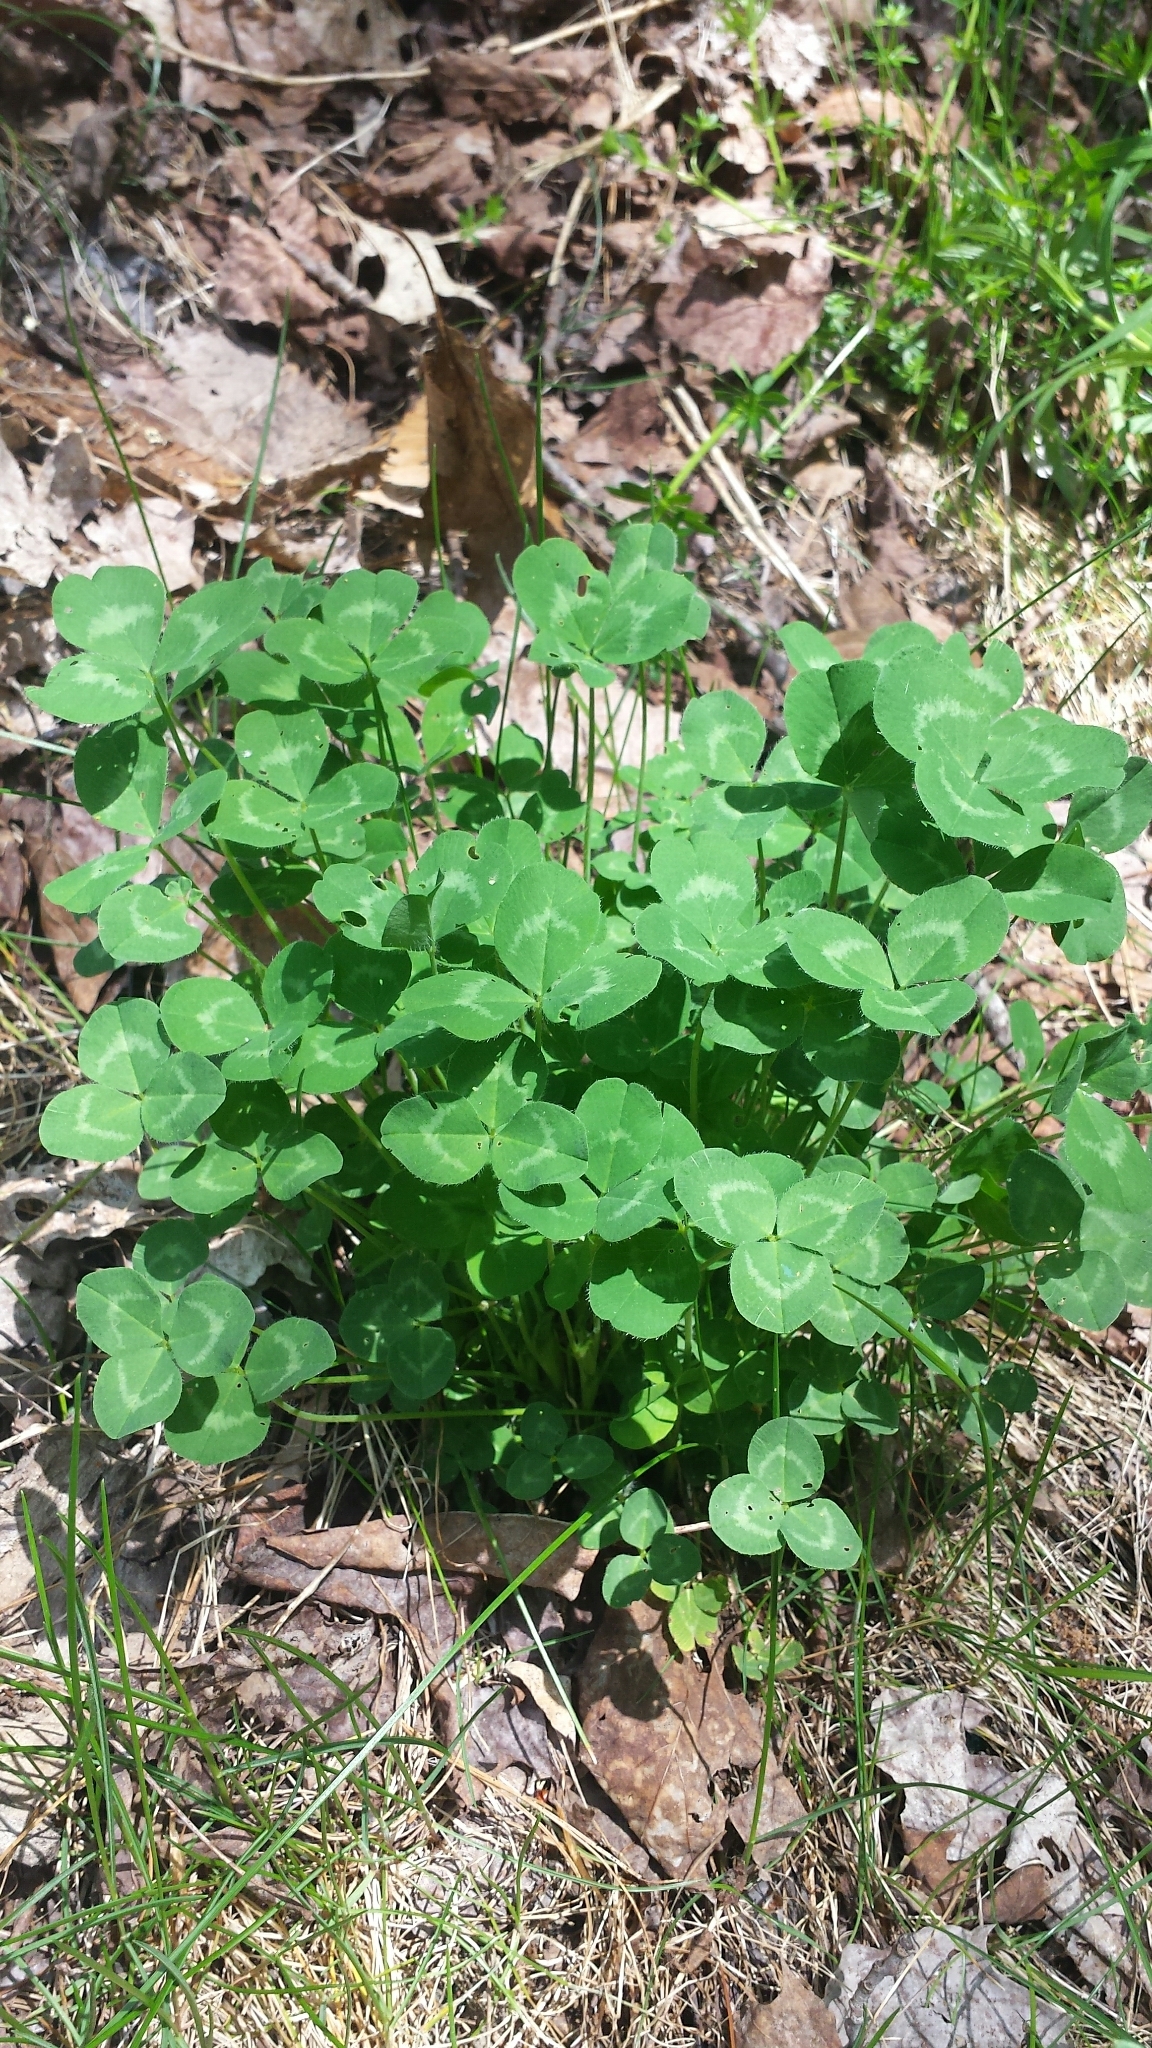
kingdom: Plantae
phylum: Tracheophyta
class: Magnoliopsida
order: Fabales
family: Fabaceae
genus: Trifolium
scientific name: Trifolium pratense
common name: Red clover
